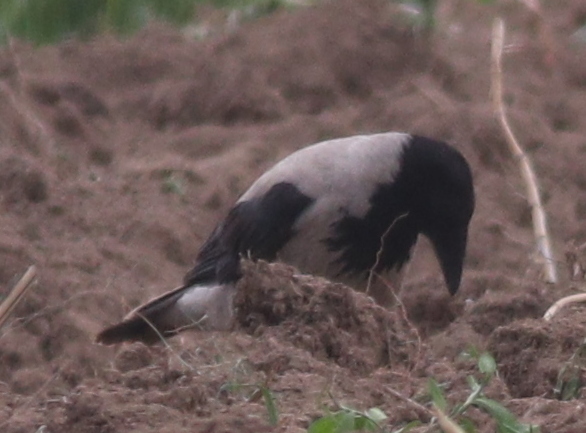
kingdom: Animalia
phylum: Chordata
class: Aves
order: Passeriformes
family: Corvidae
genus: Corvus
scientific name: Corvus cornix
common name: Hooded crow
